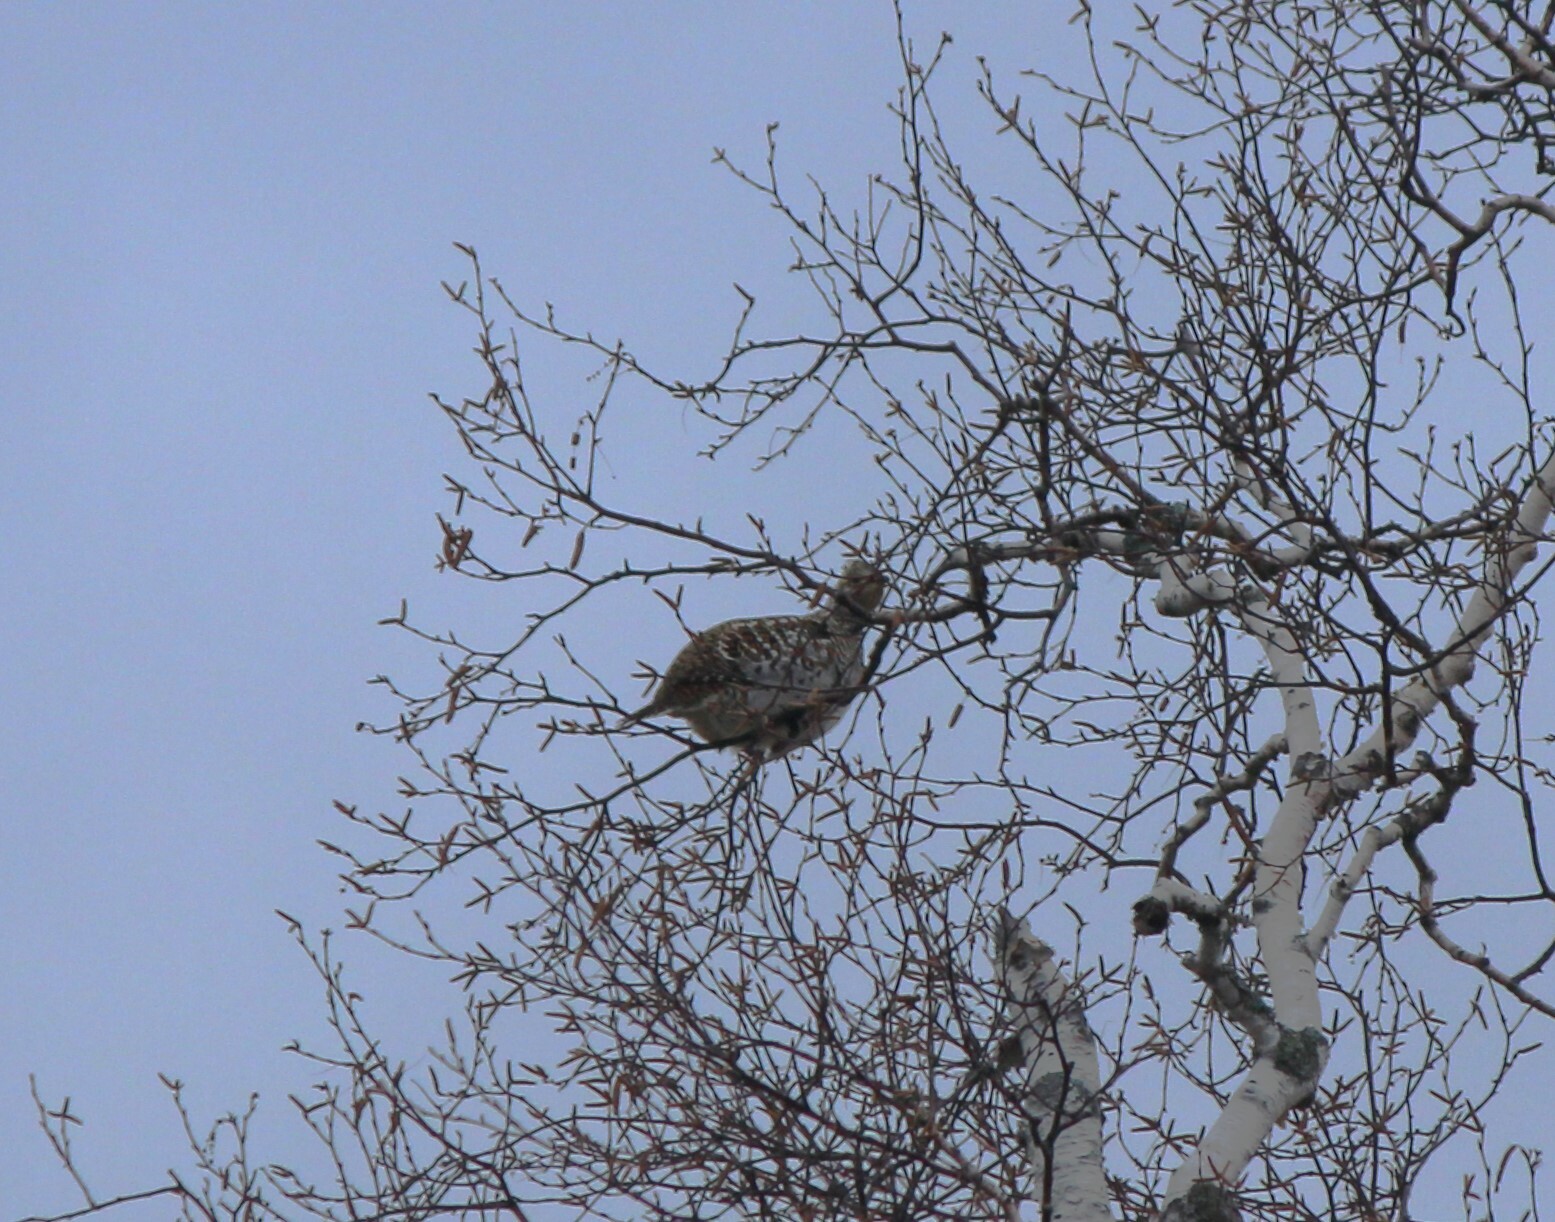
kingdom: Animalia
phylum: Chordata
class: Aves
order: Galliformes
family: Phasianidae
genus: Bonasa
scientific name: Bonasa umbellus
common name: Ruffed grouse
